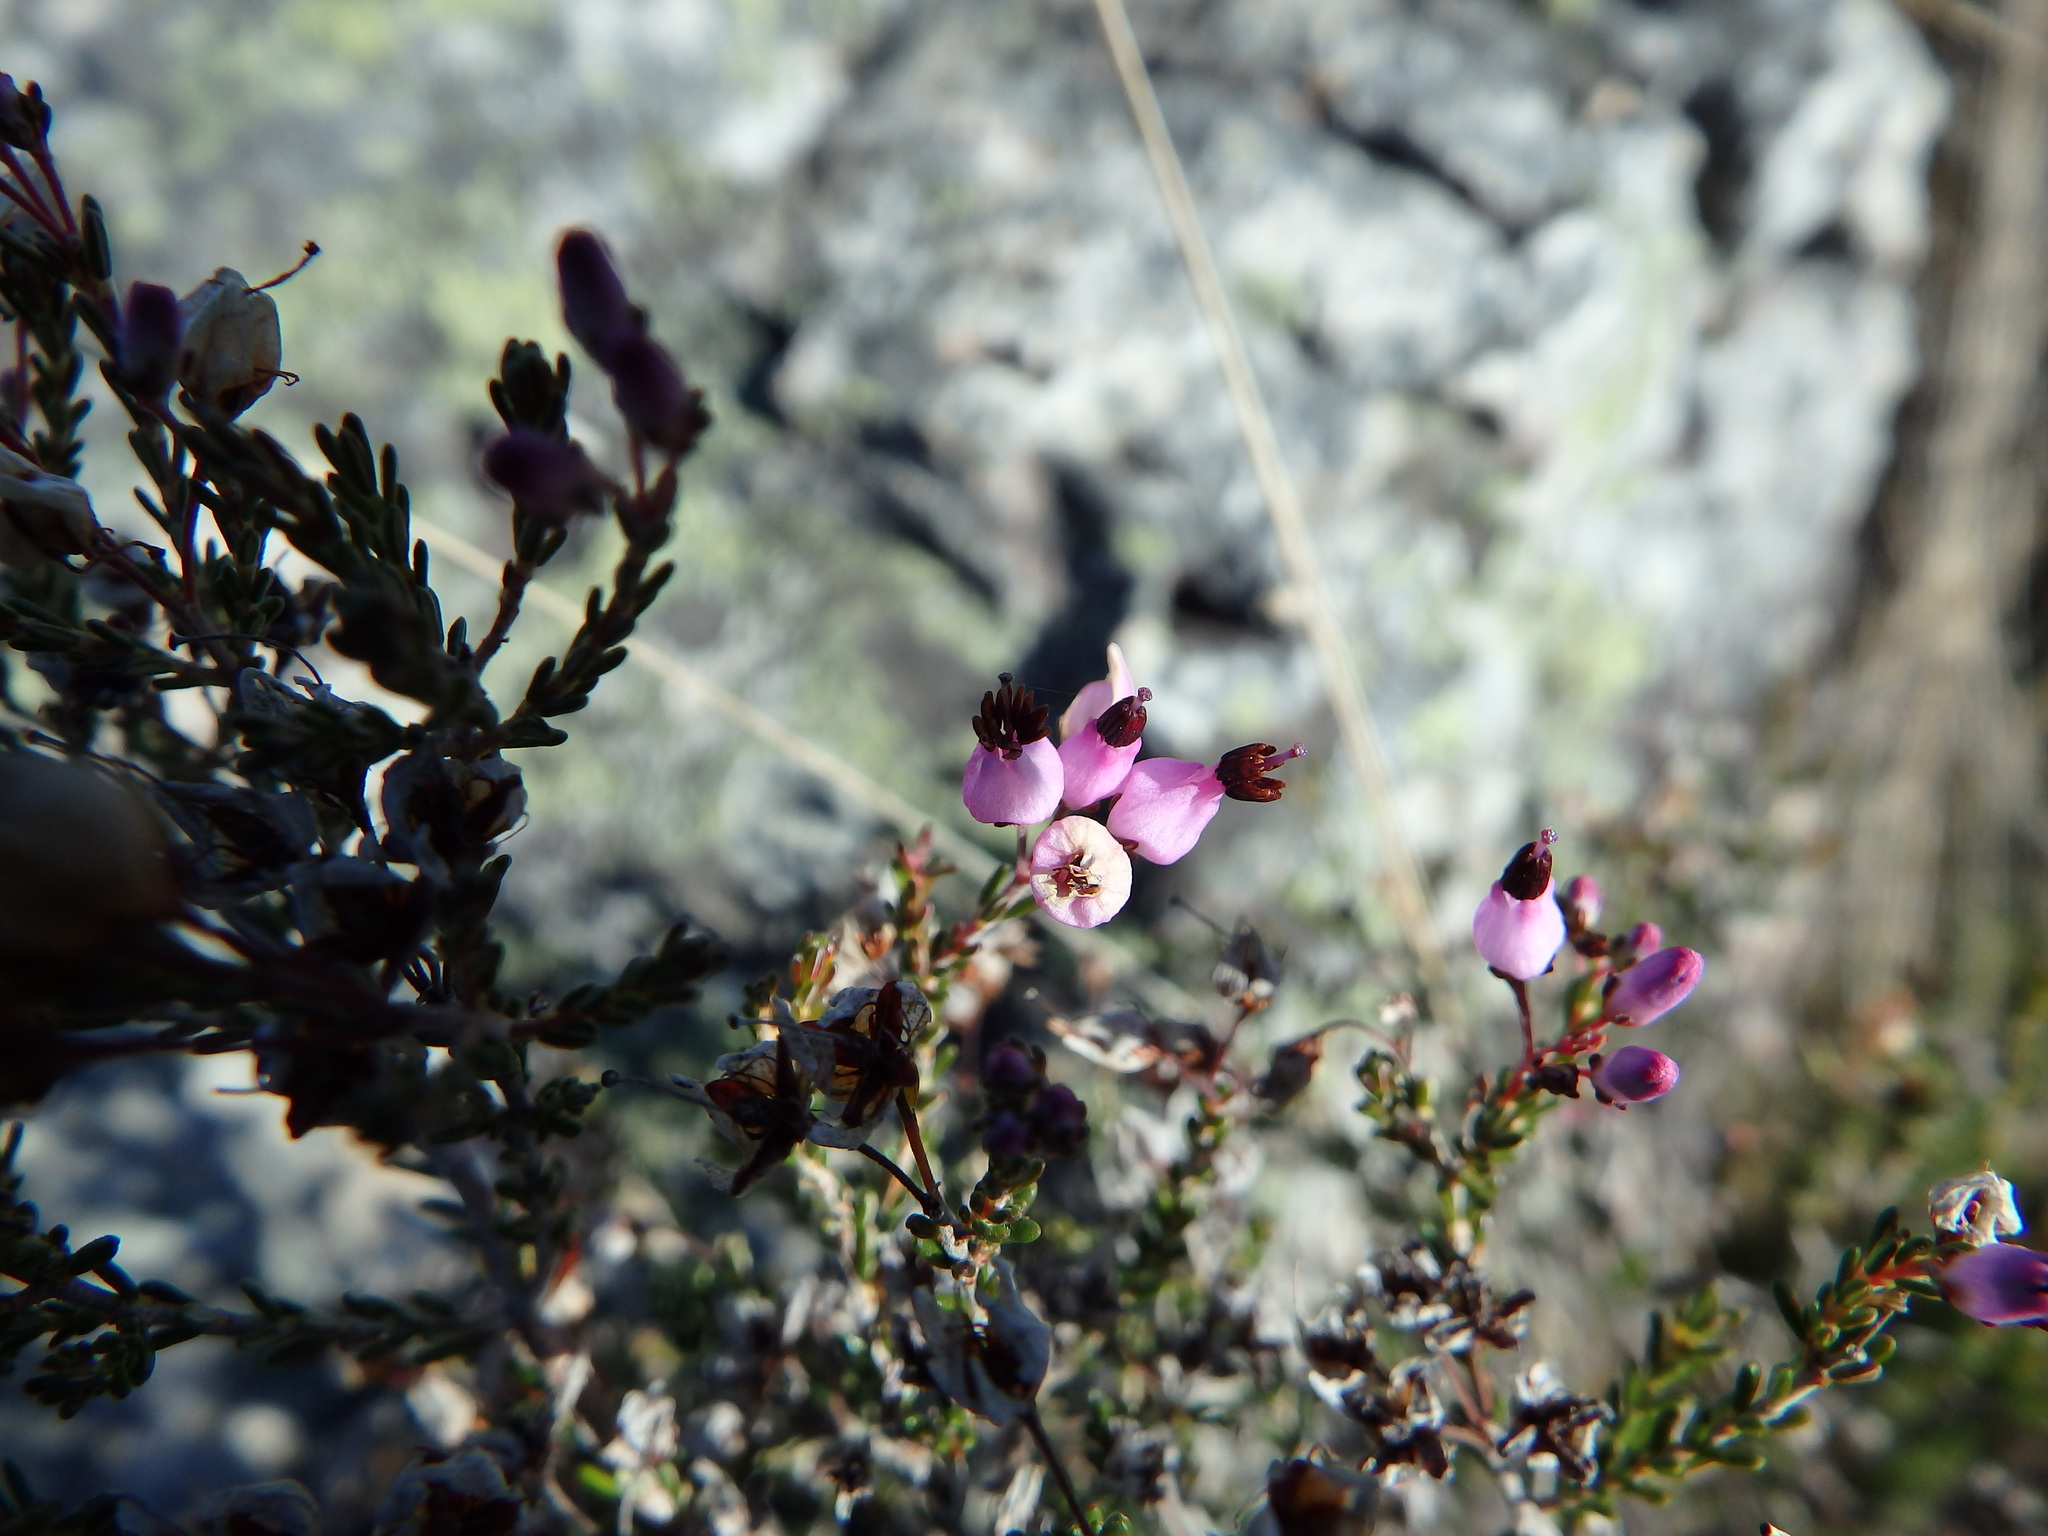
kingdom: Plantae
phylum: Tracheophyta
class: Magnoliopsida
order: Ericales
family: Ericaceae
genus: Erica
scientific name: Erica umbellata
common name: Dwarf spanish heath
